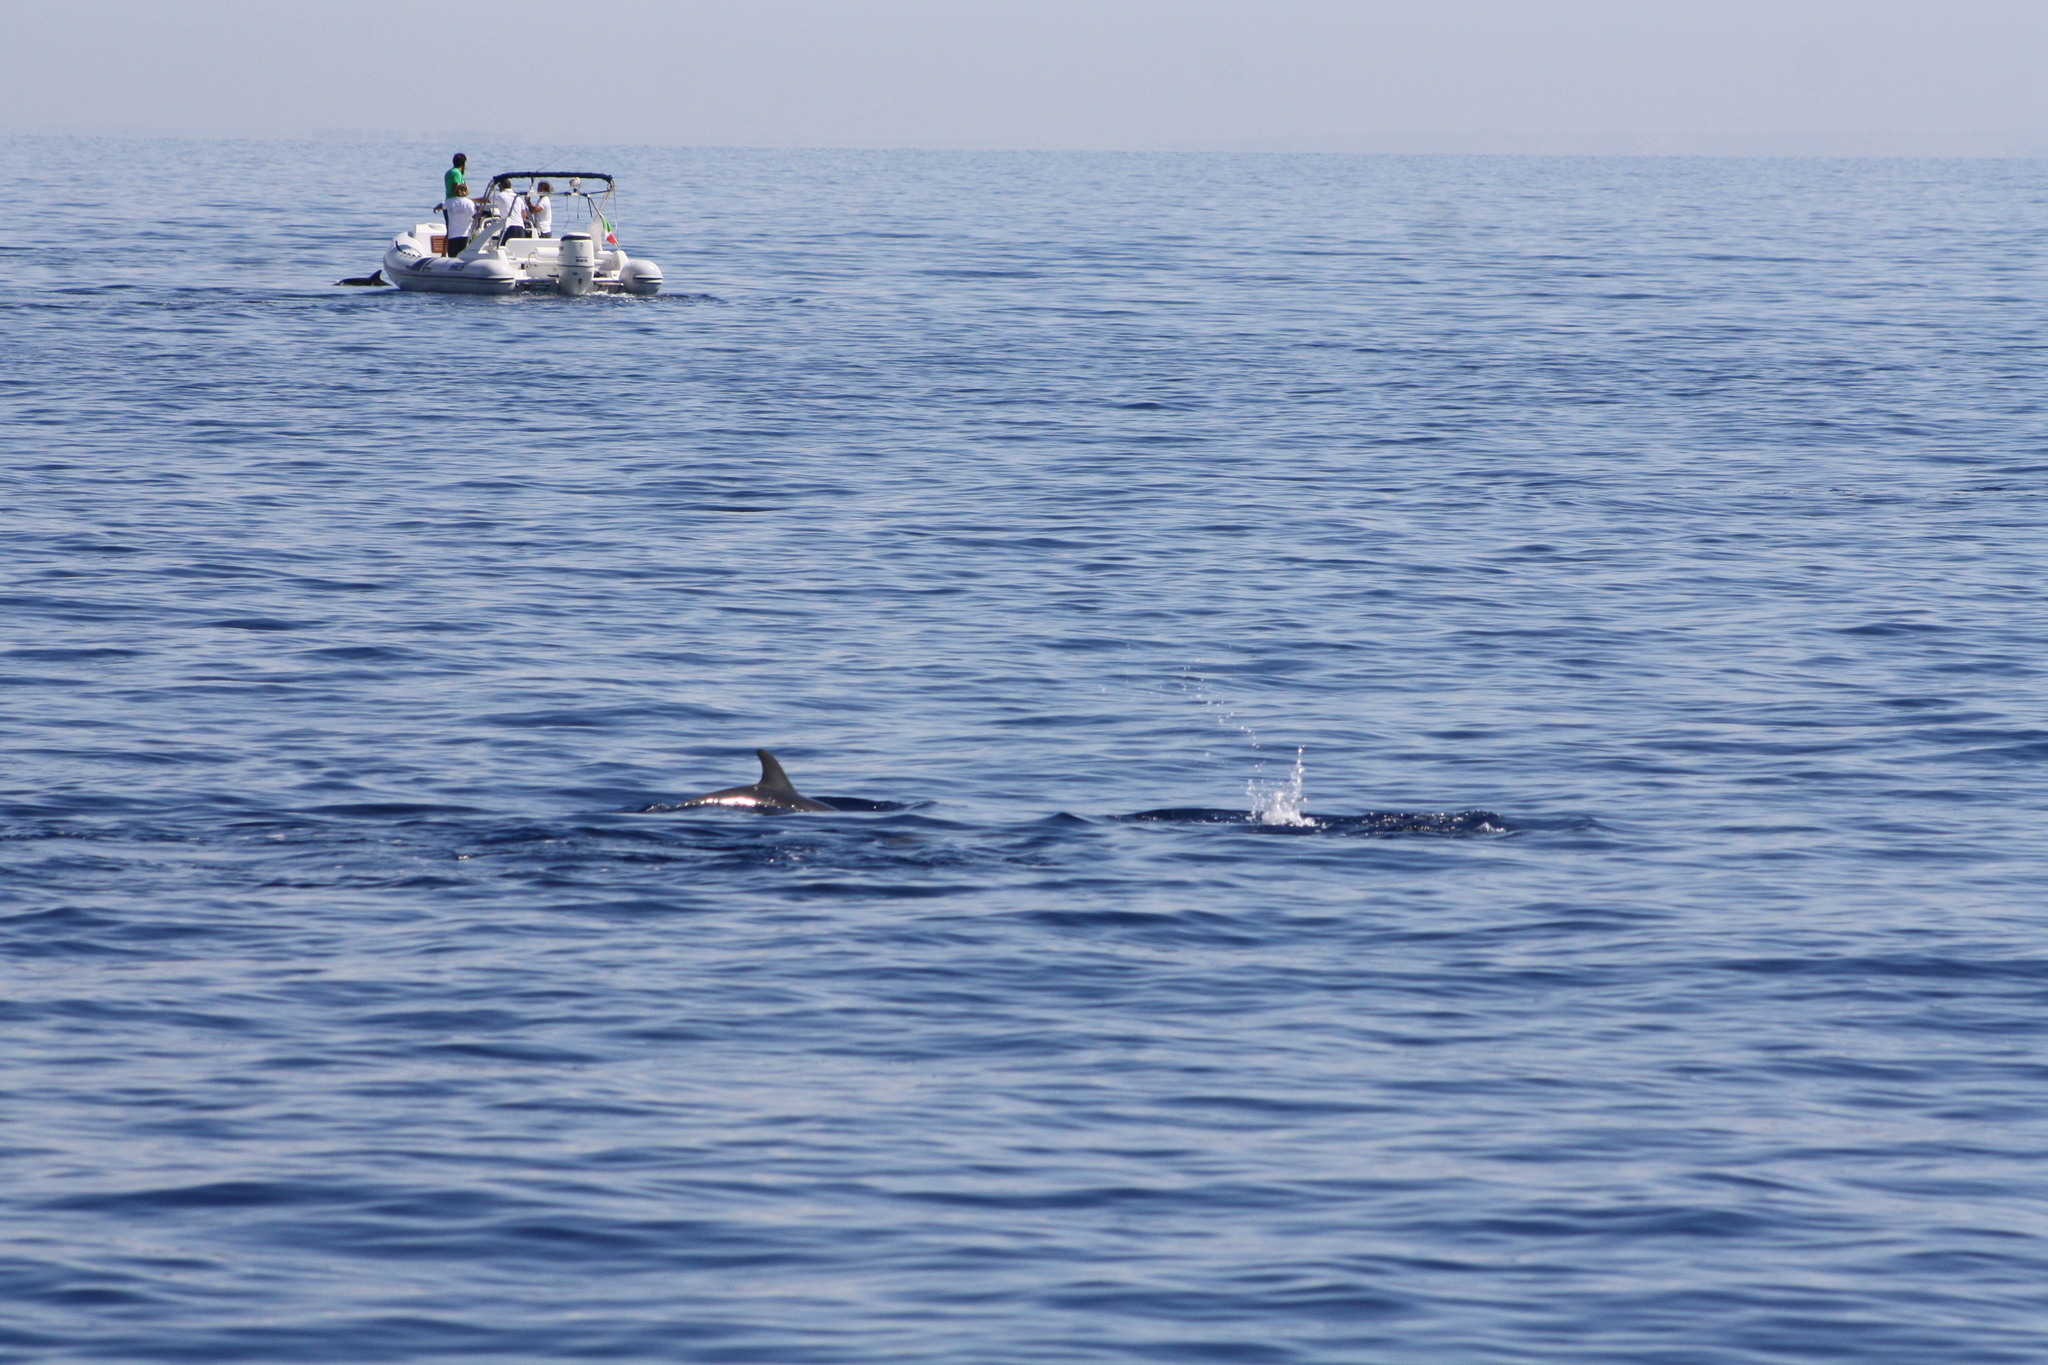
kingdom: Animalia
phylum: Chordata
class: Mammalia
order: Cetacea
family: Delphinidae
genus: Stenella
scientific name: Stenella coeruleoalba
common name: Striped dolphin
